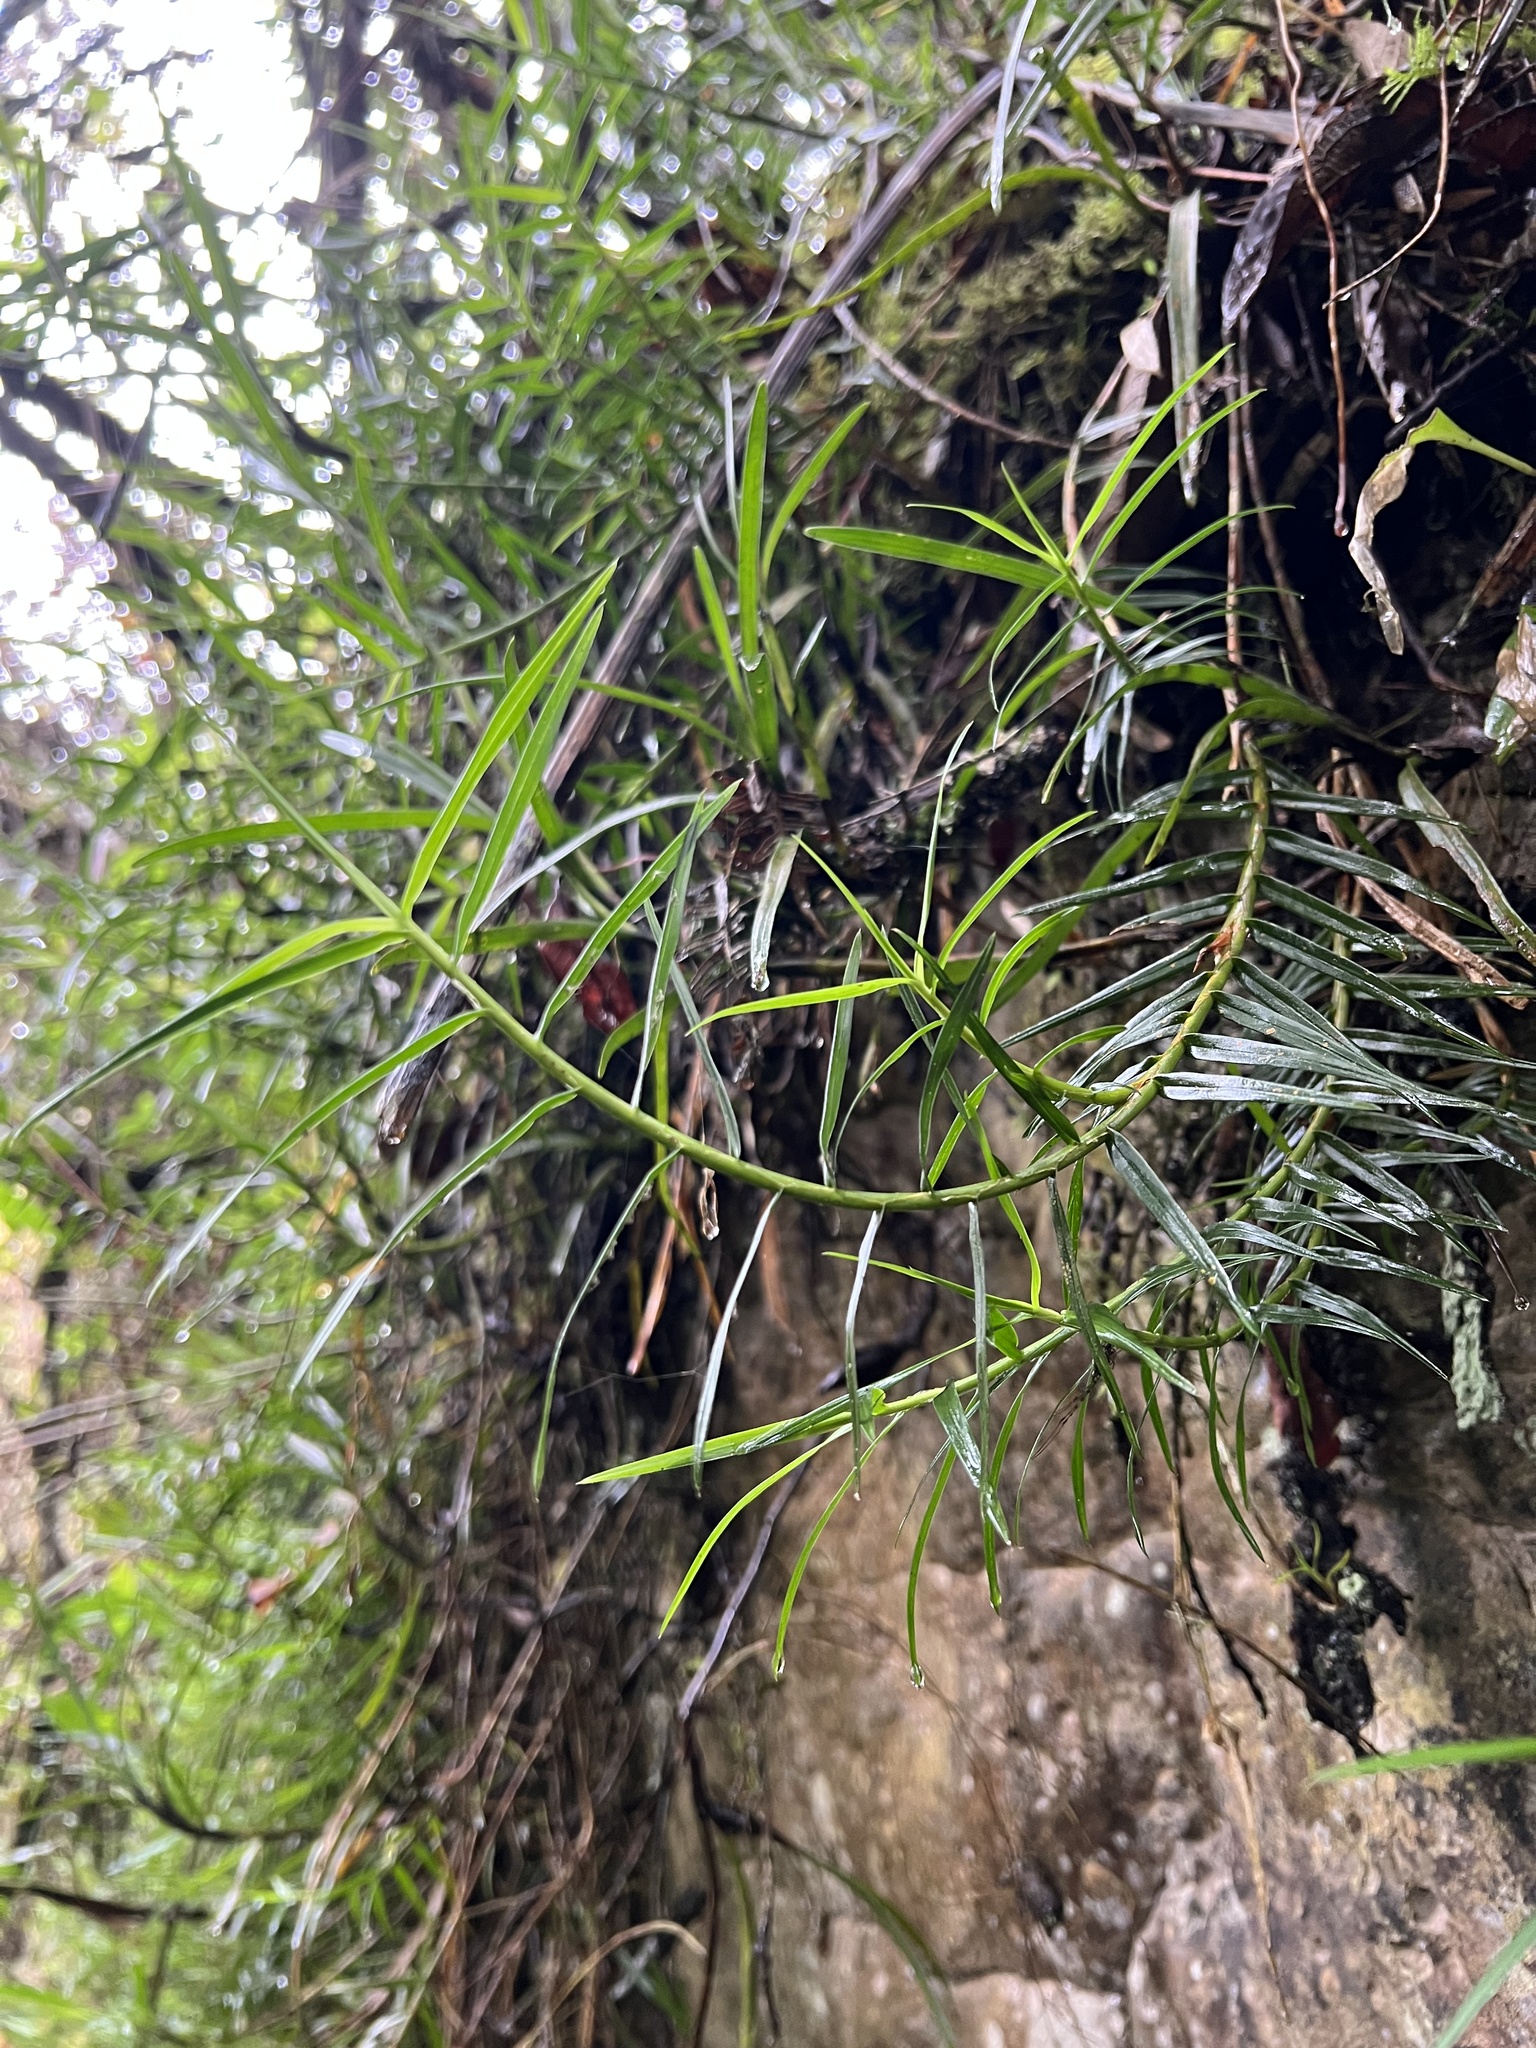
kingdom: Plantae
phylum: Tracheophyta
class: Liliopsida
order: Asparagales
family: Orchidaceae
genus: Maxillaria
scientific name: Maxillaria graminifolia
